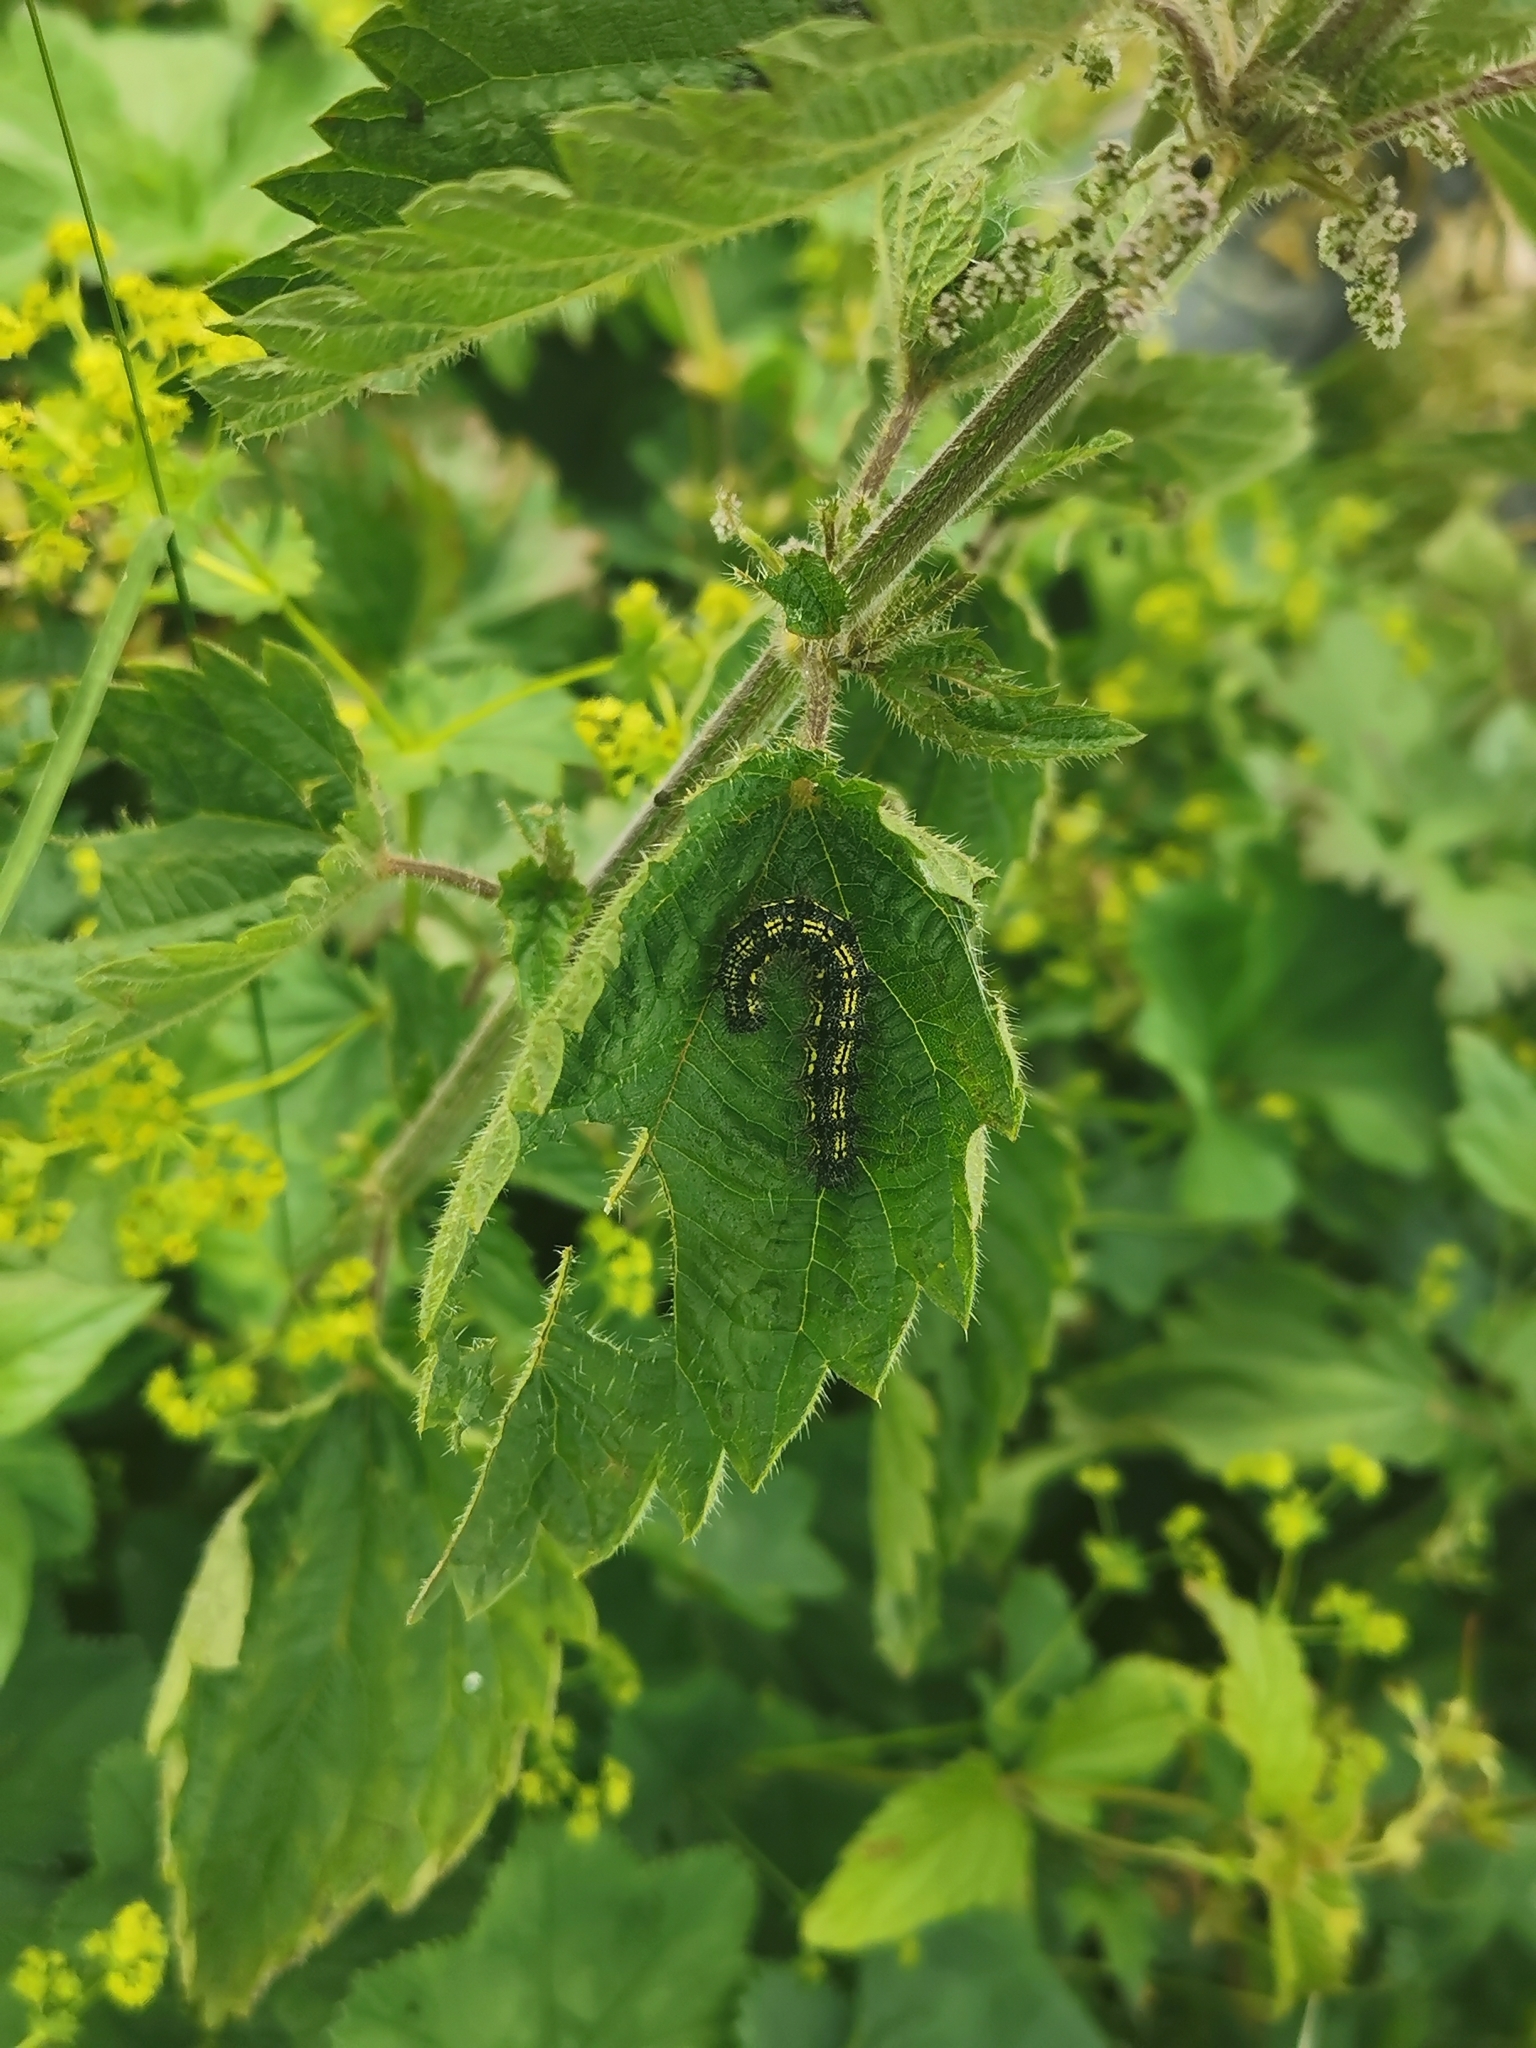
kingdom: Animalia
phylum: Arthropoda
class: Insecta
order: Lepidoptera
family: Nymphalidae
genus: Aglais
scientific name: Aglais urticae
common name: Small tortoiseshell
